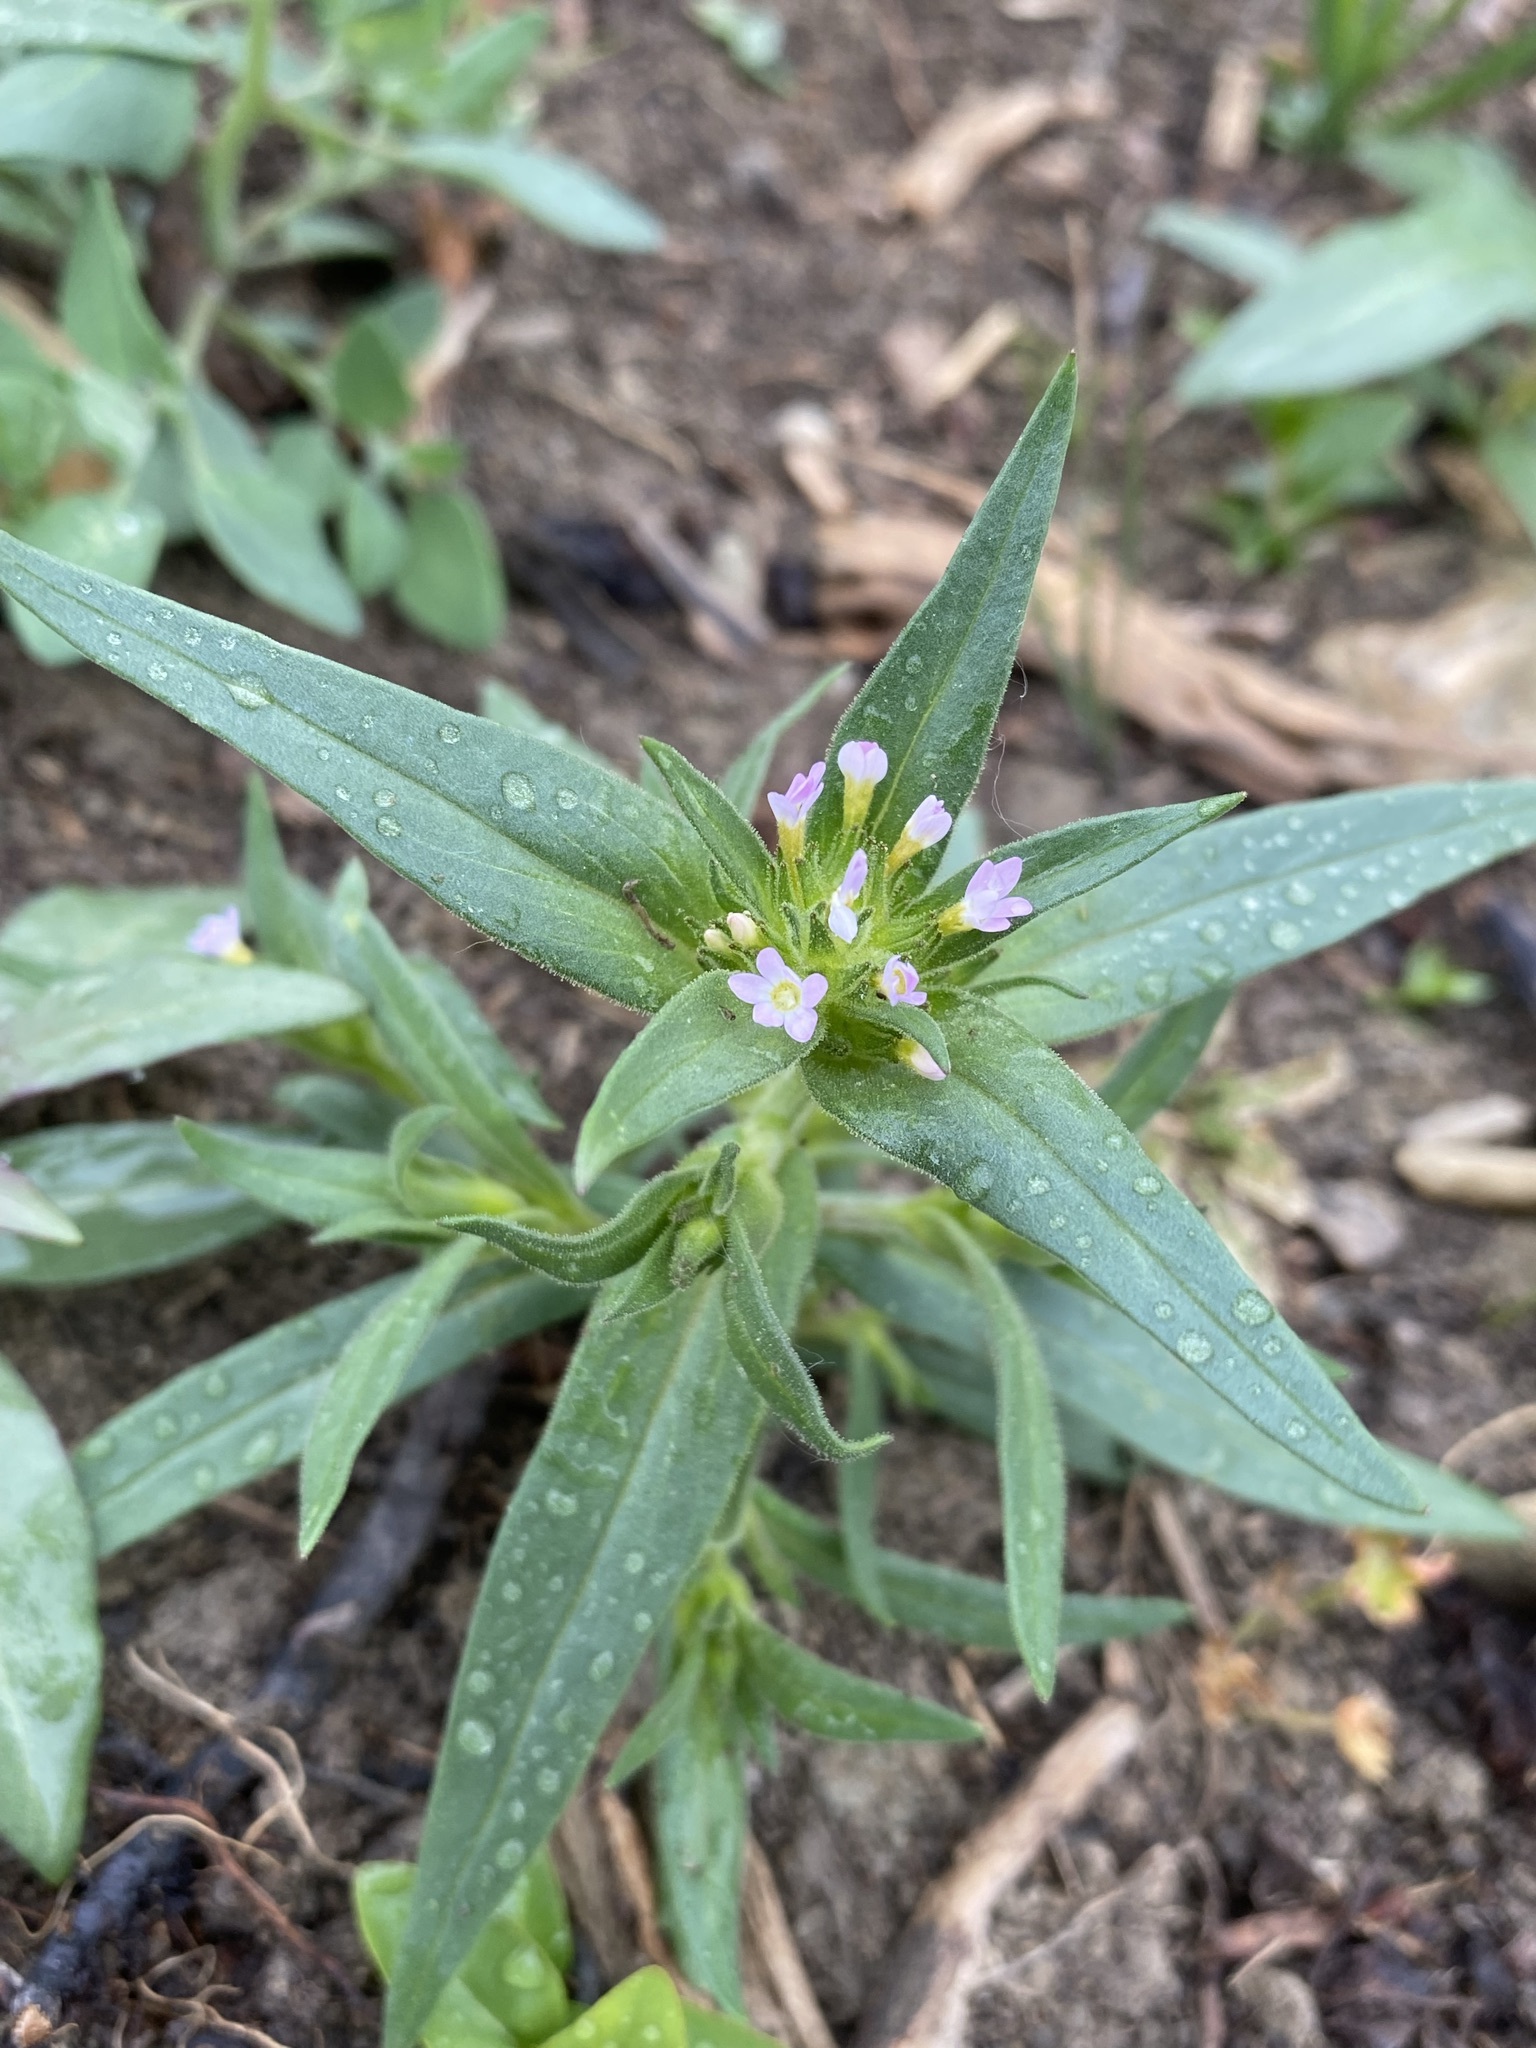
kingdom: Plantae
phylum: Tracheophyta
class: Magnoliopsida
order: Ericales
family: Polemoniaceae
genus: Collomia
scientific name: Collomia linearis
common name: Tiny trumpet
